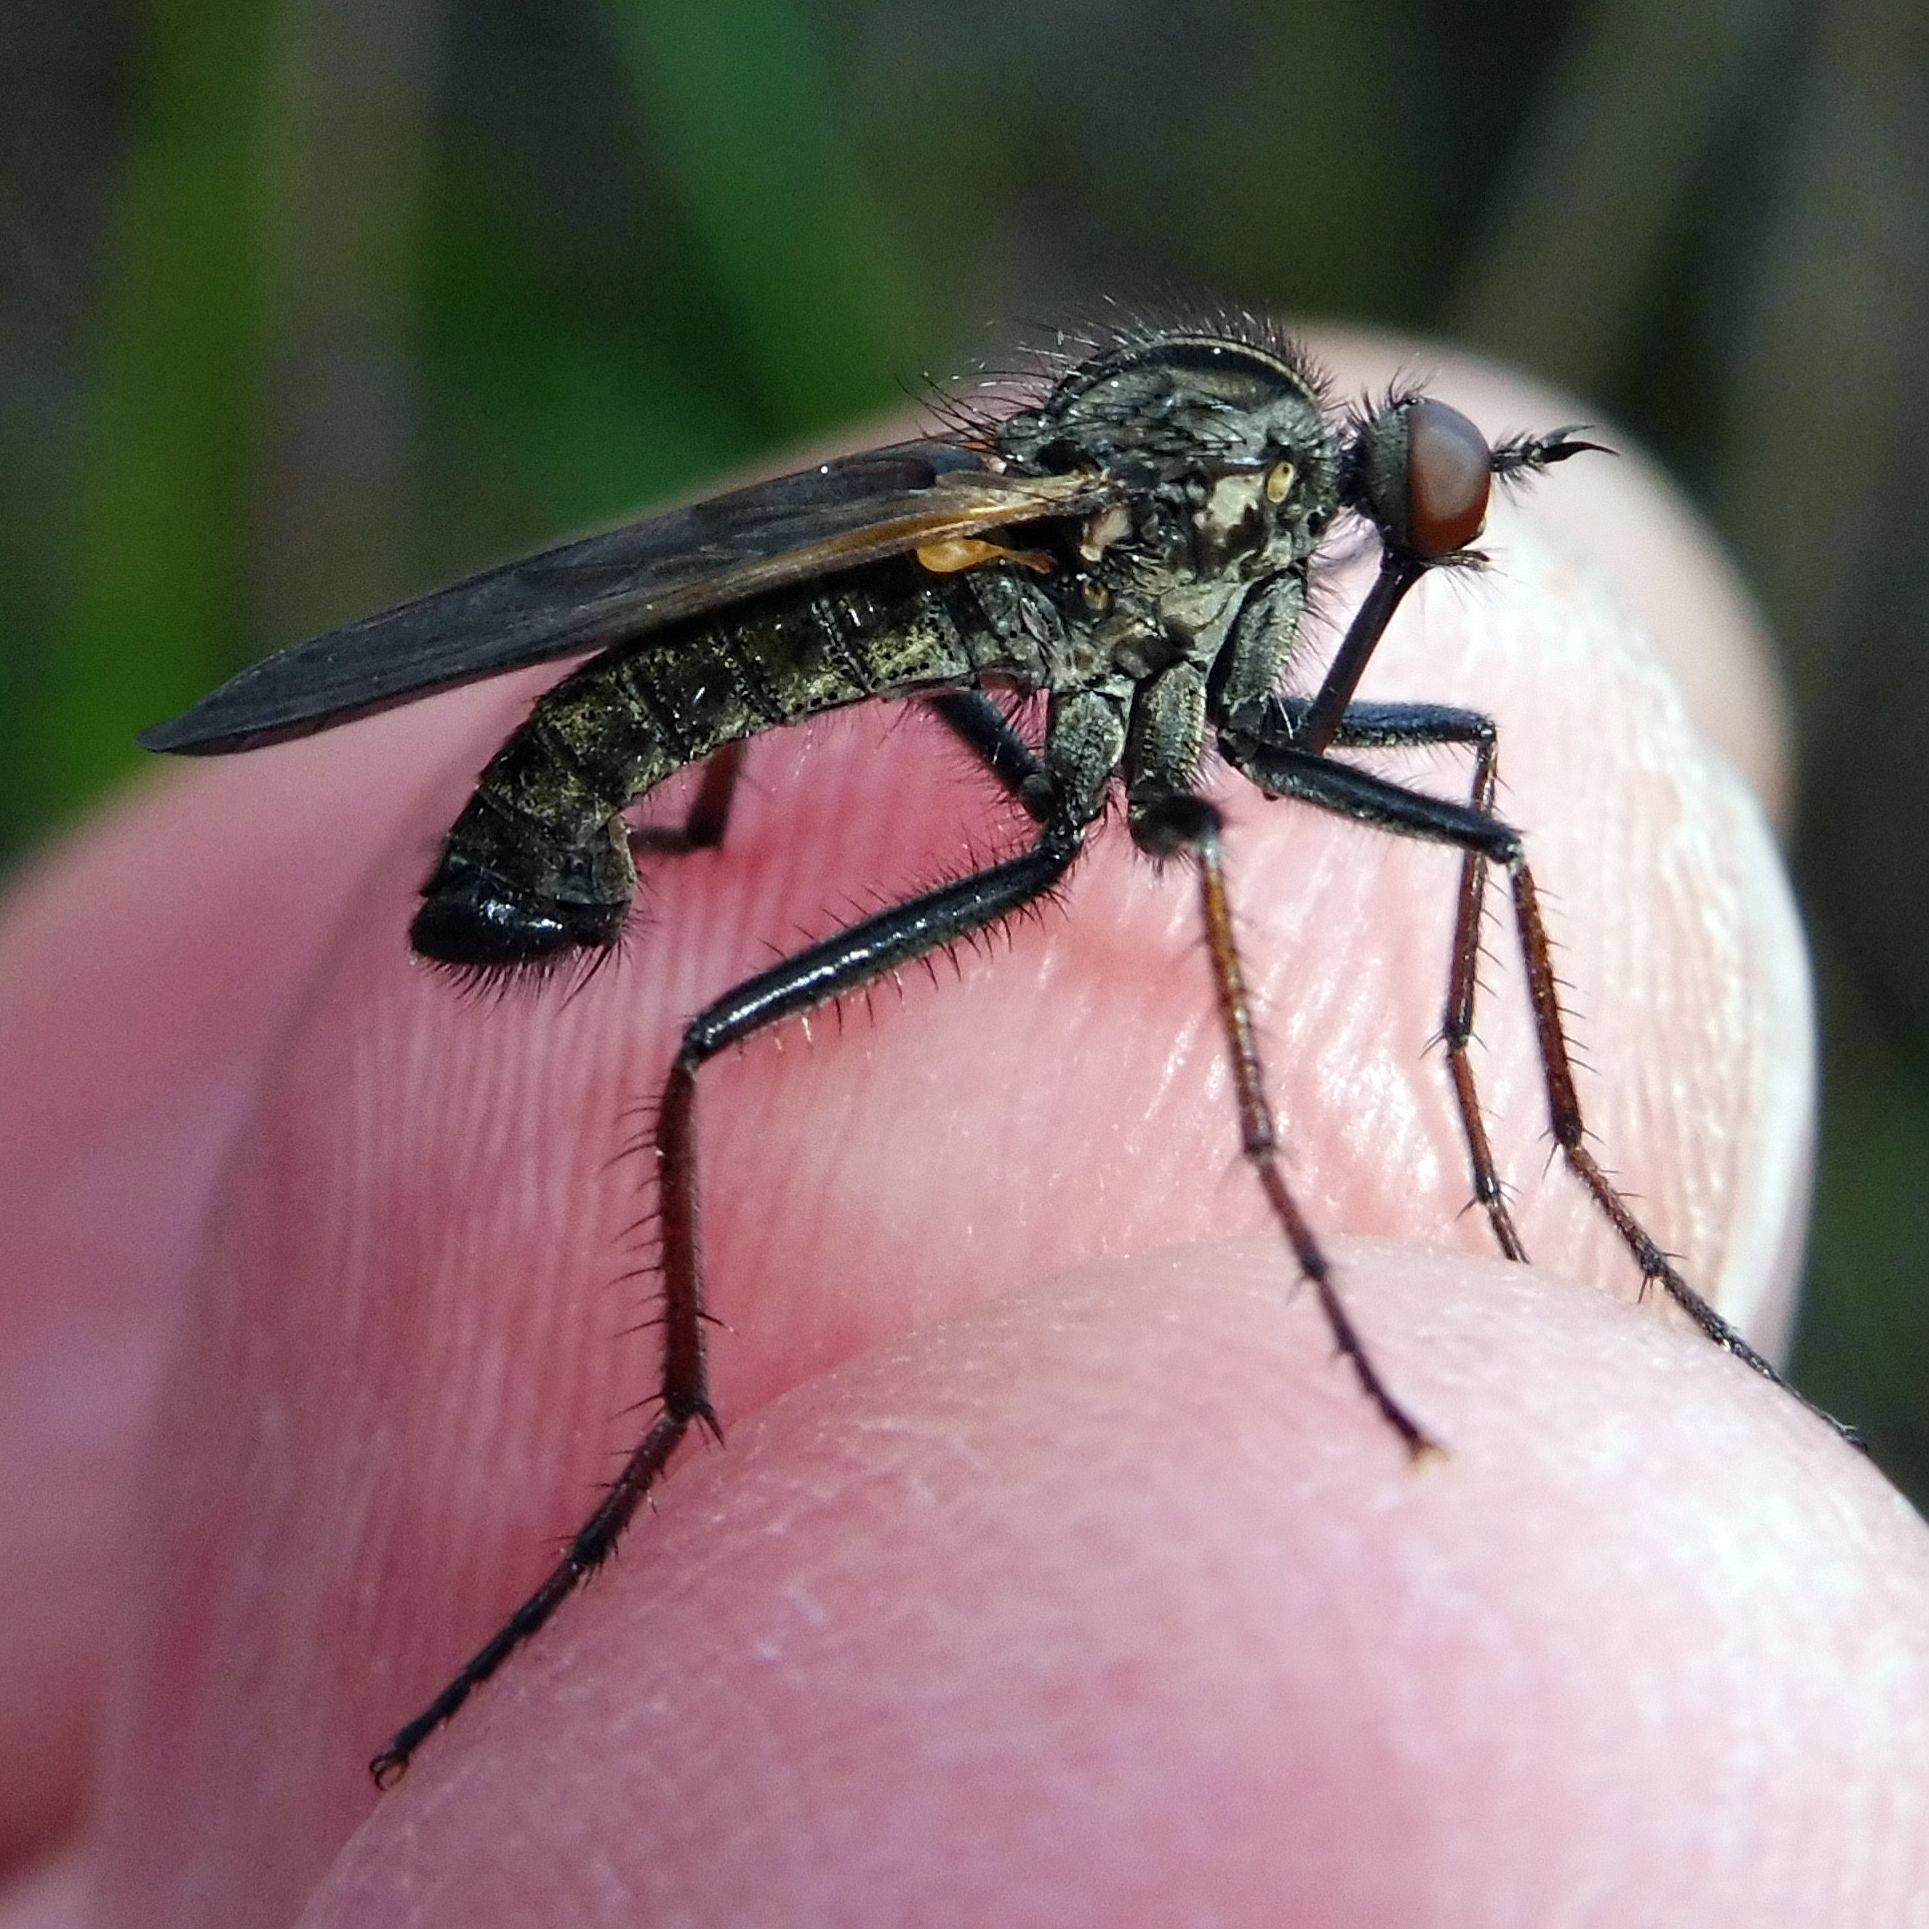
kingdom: Animalia
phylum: Arthropoda
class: Insecta
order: Diptera
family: Empididae
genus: Empis
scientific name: Empis tessellata
